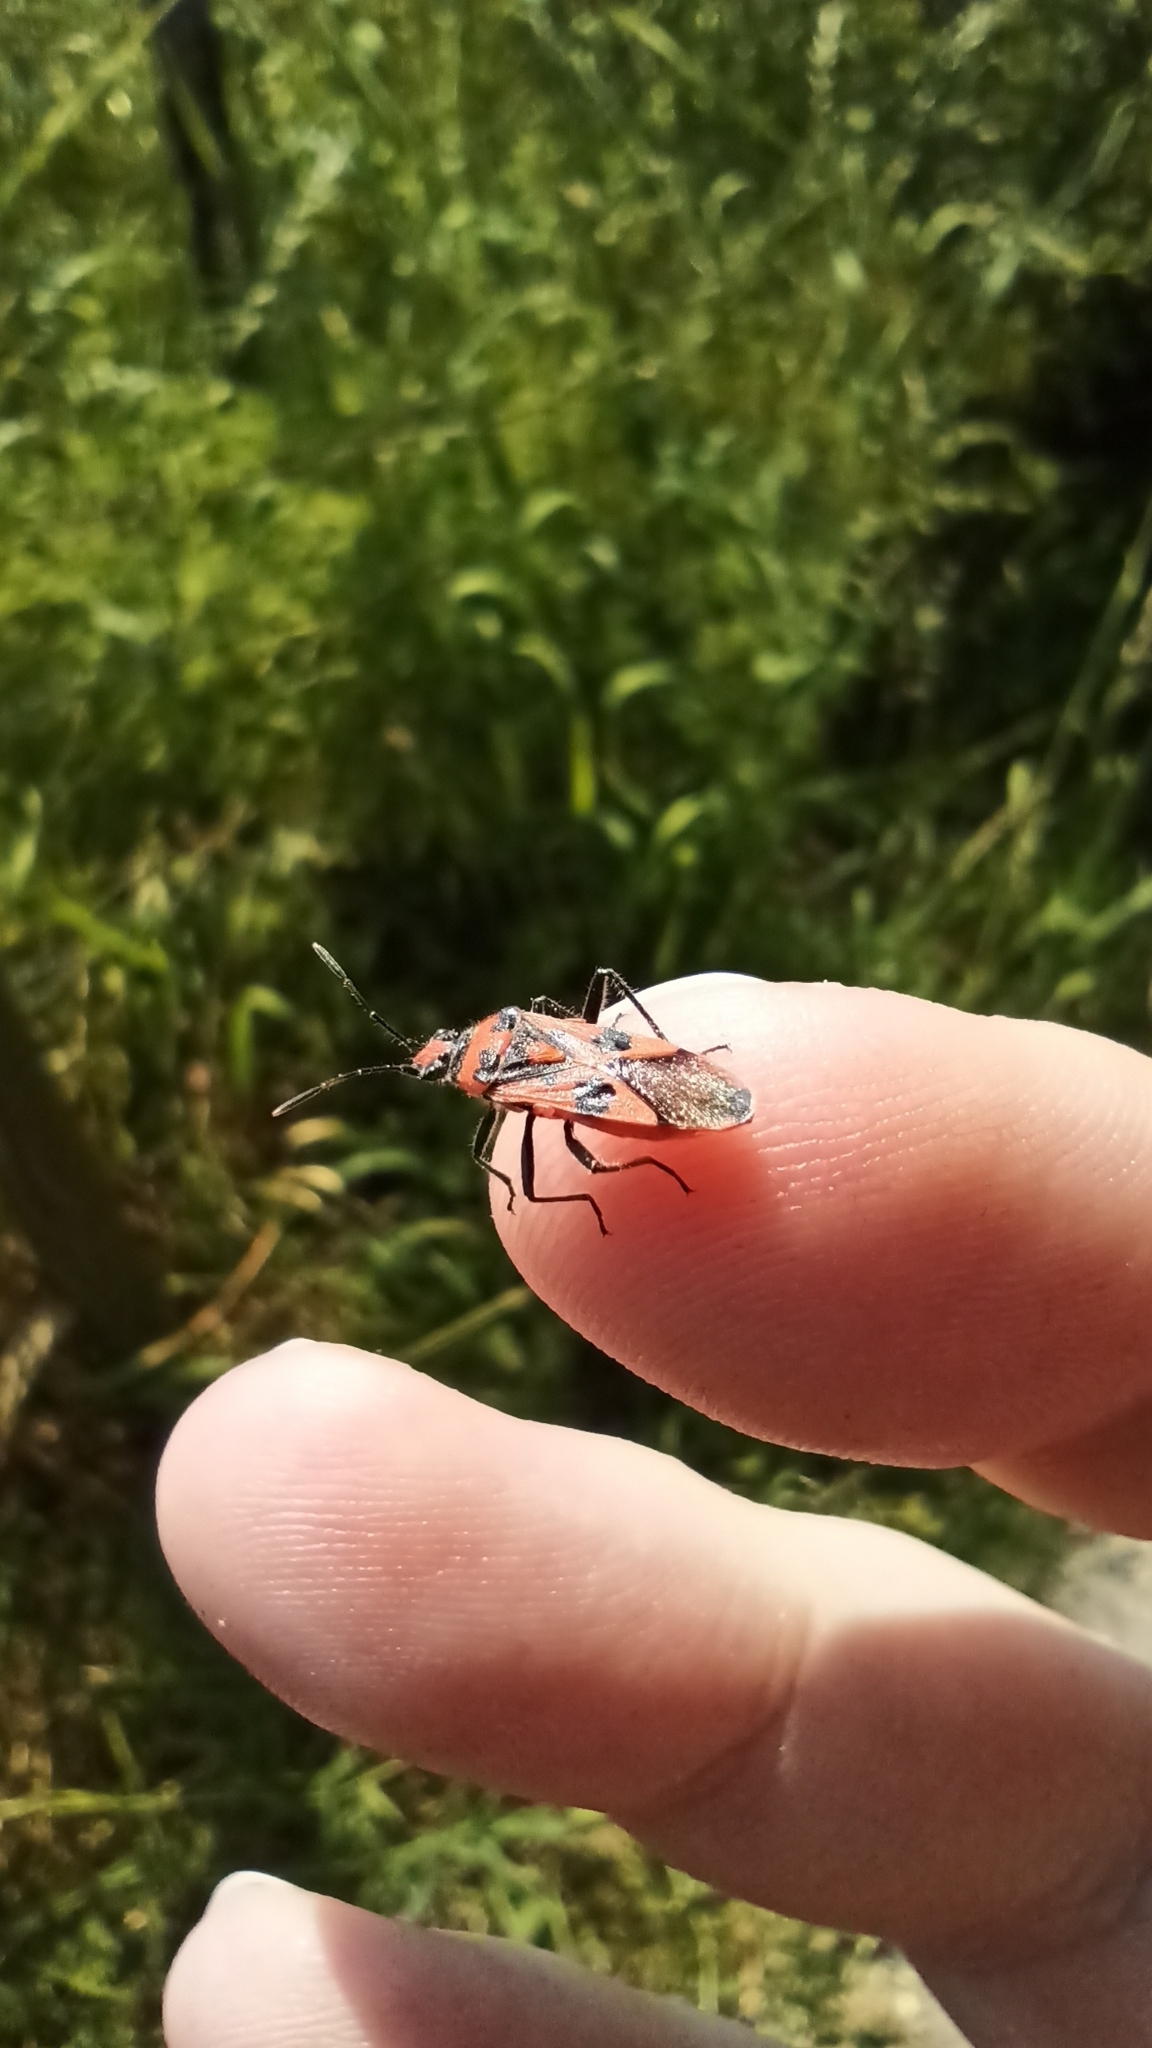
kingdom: Animalia
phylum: Arthropoda
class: Insecta
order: Hemiptera
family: Rhopalidae
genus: Corizus
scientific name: Corizus hyoscyami
